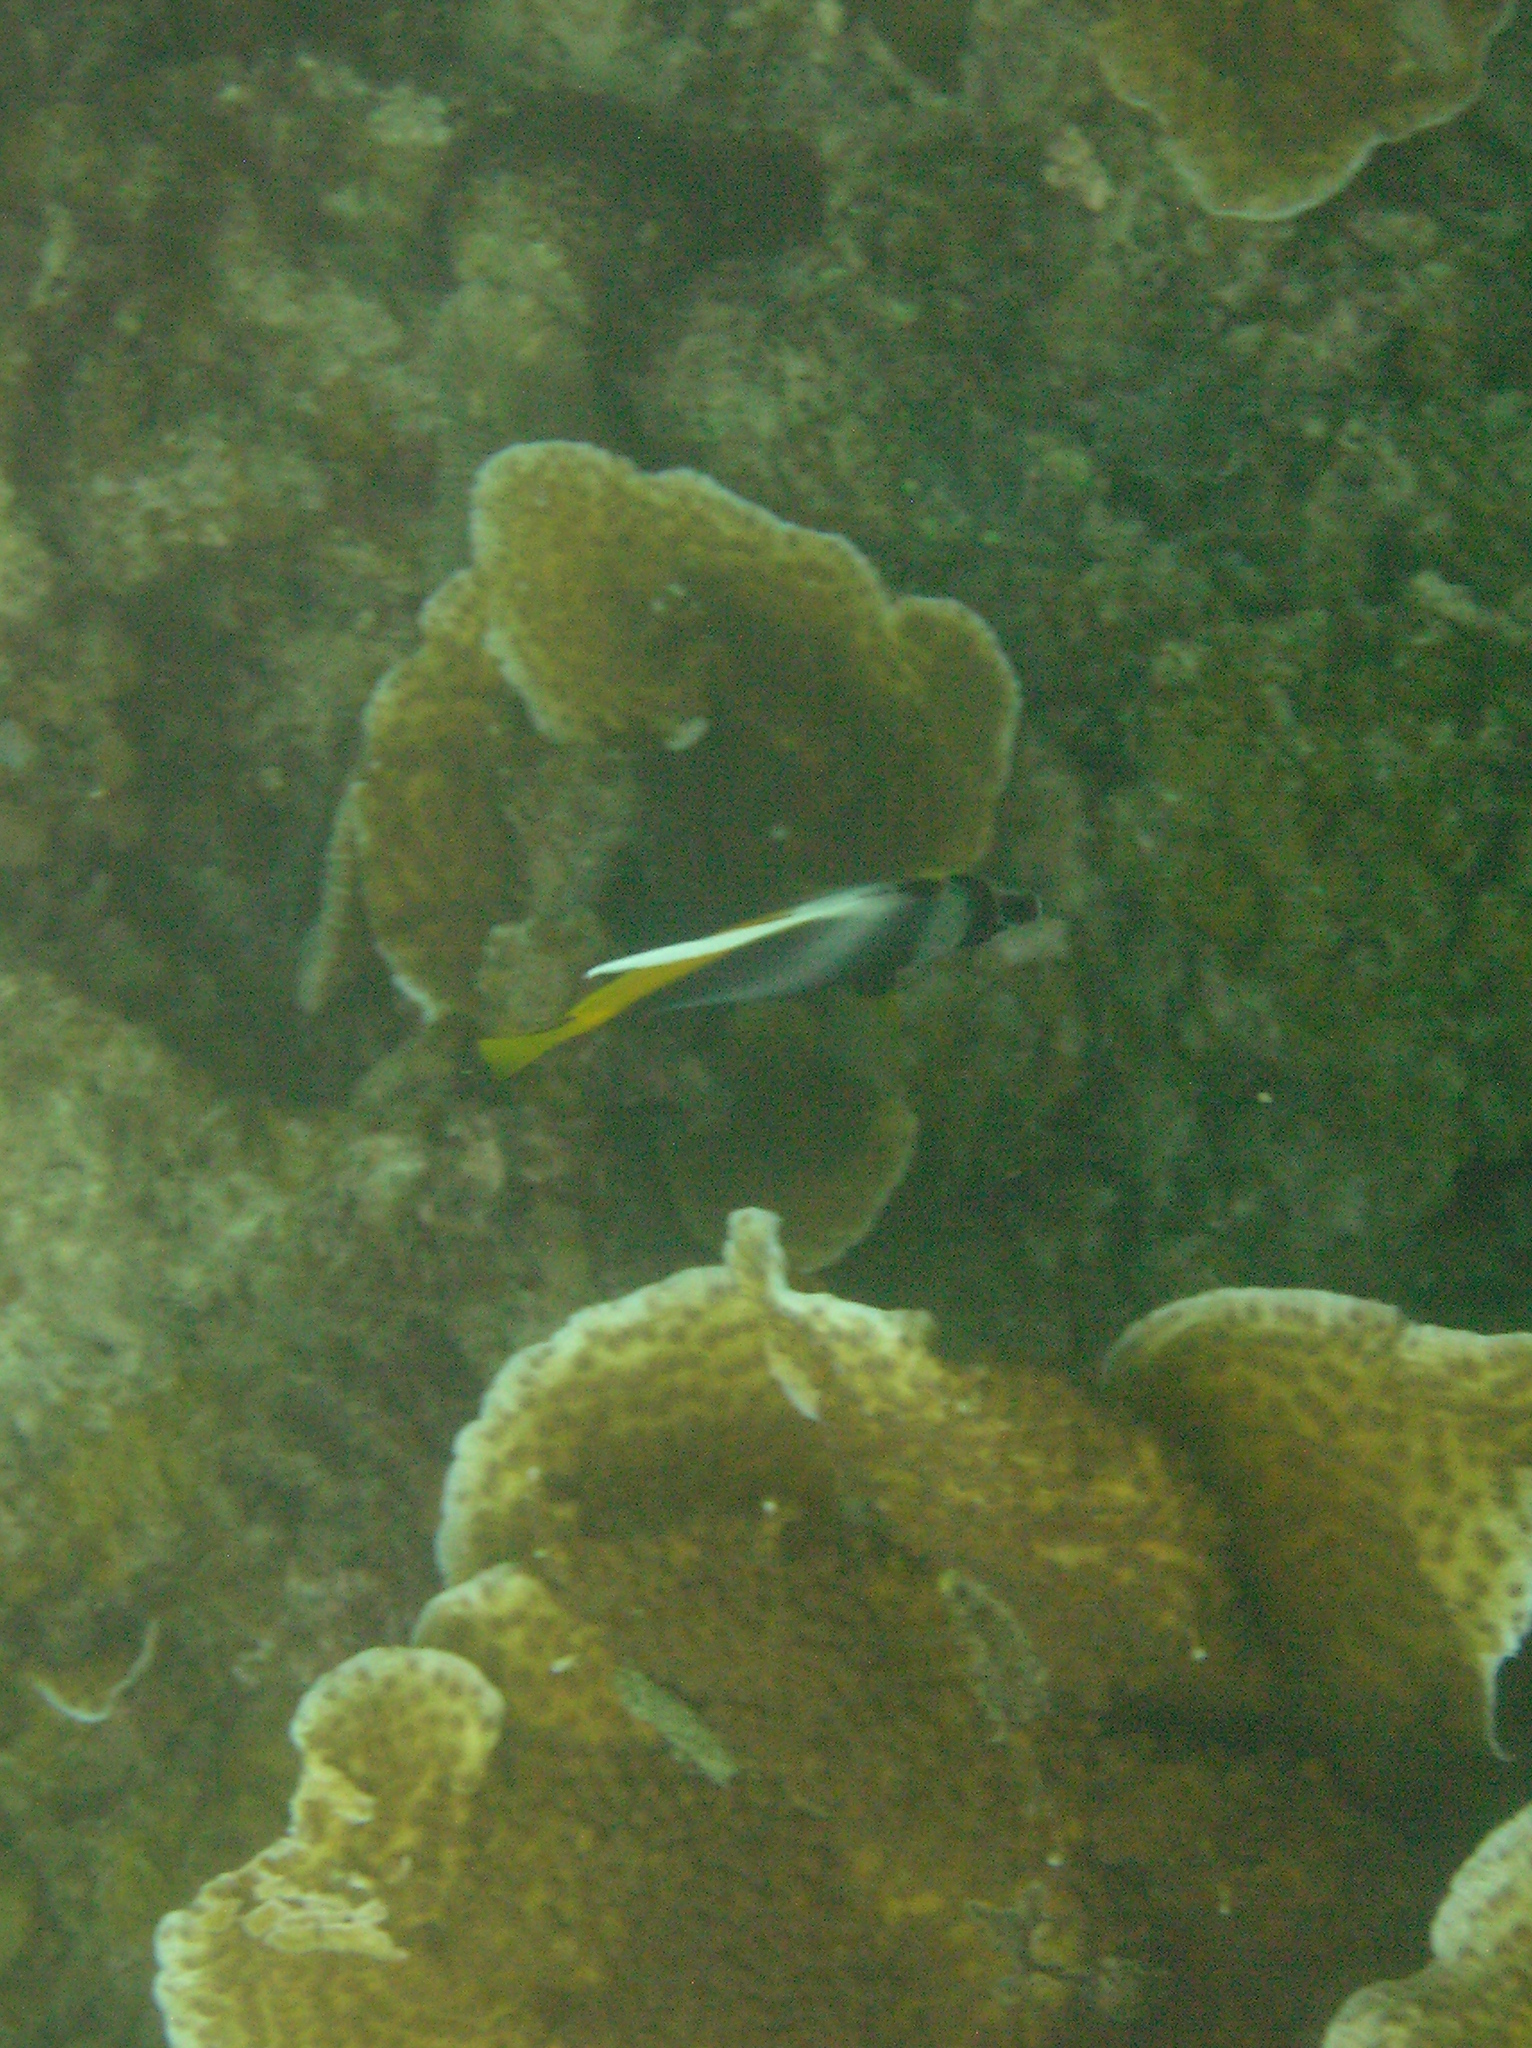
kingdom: Animalia
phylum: Chordata
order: Perciformes
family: Chaetodontidae
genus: Heniochus
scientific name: Heniochus singularius
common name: Singular bannerfish
